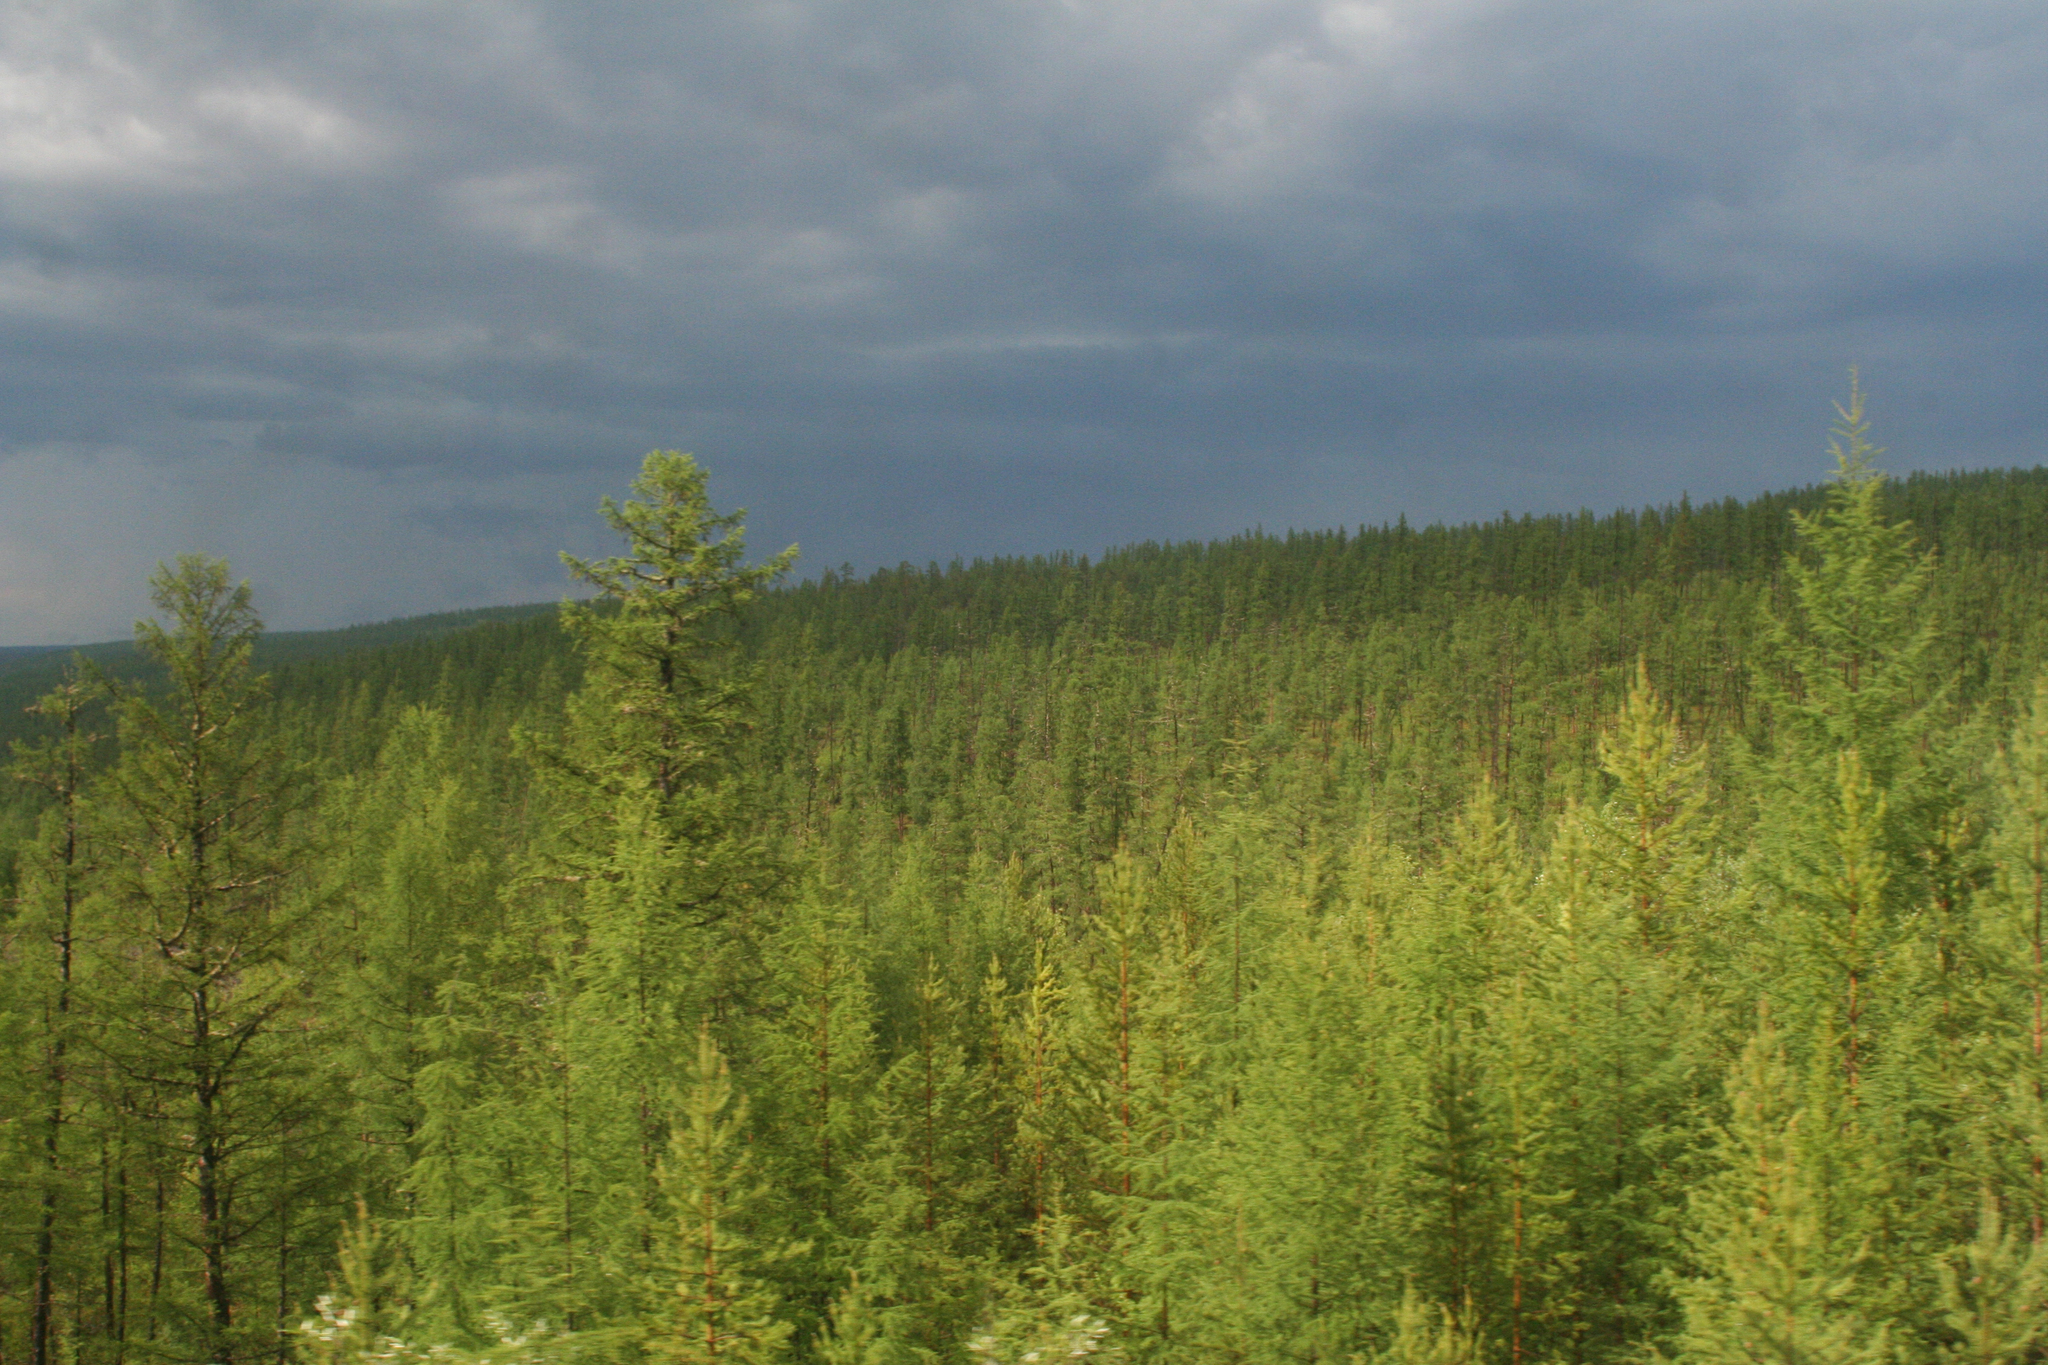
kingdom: Plantae
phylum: Tracheophyta
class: Pinopsida
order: Pinales
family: Pinaceae
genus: Larix
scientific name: Larix gmelinii
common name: Dahurian larch
